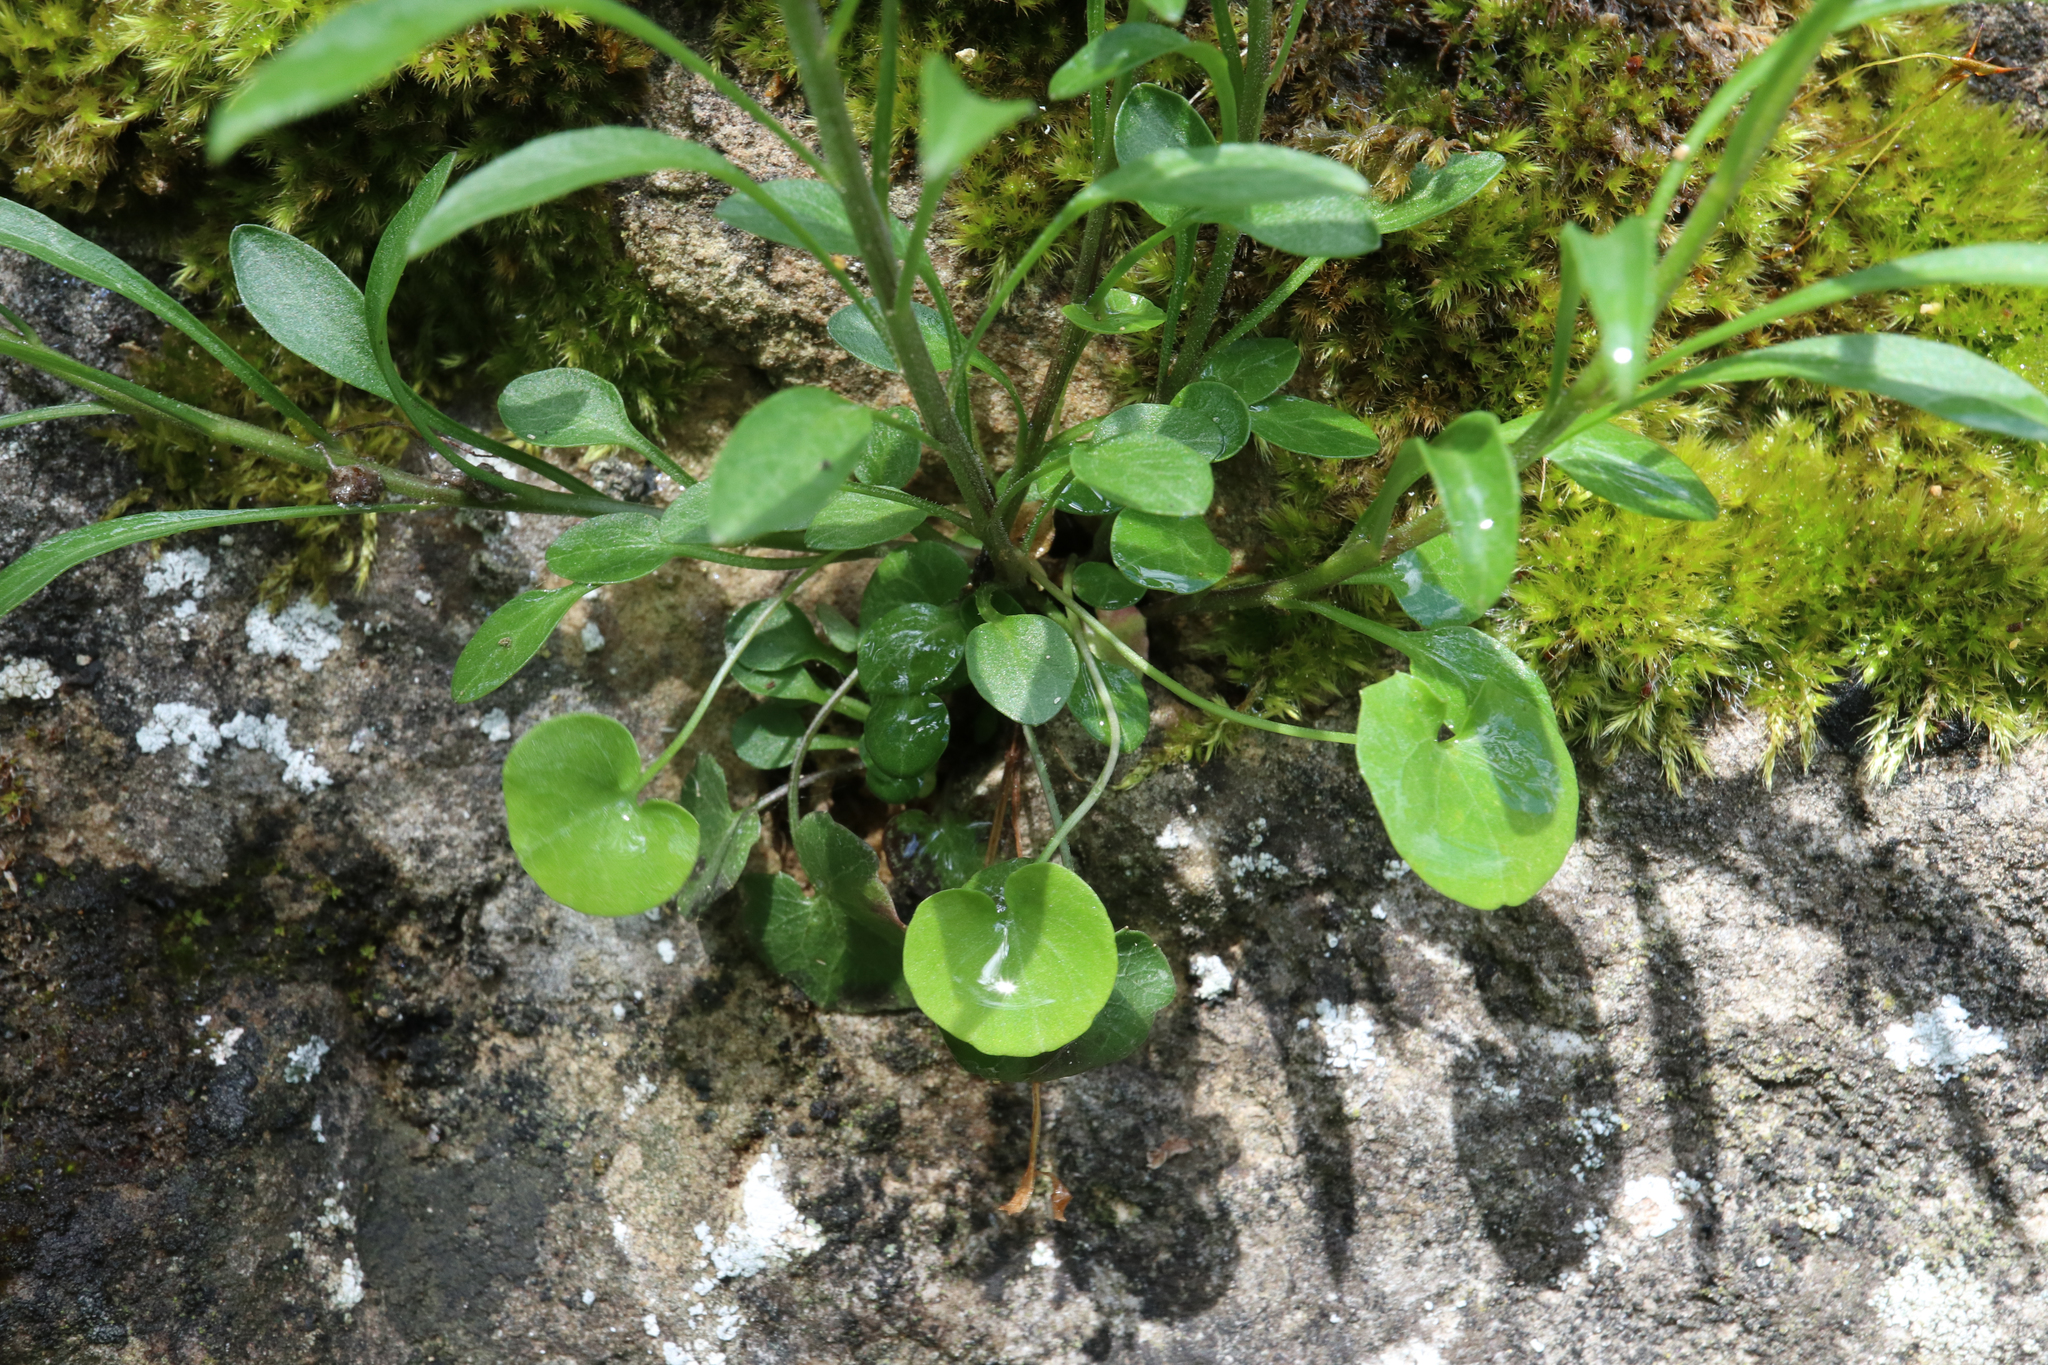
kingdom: Plantae
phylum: Tracheophyta
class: Magnoliopsida
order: Asterales
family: Campanulaceae
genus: Campanula
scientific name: Campanula rotundifolia
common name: Harebell
